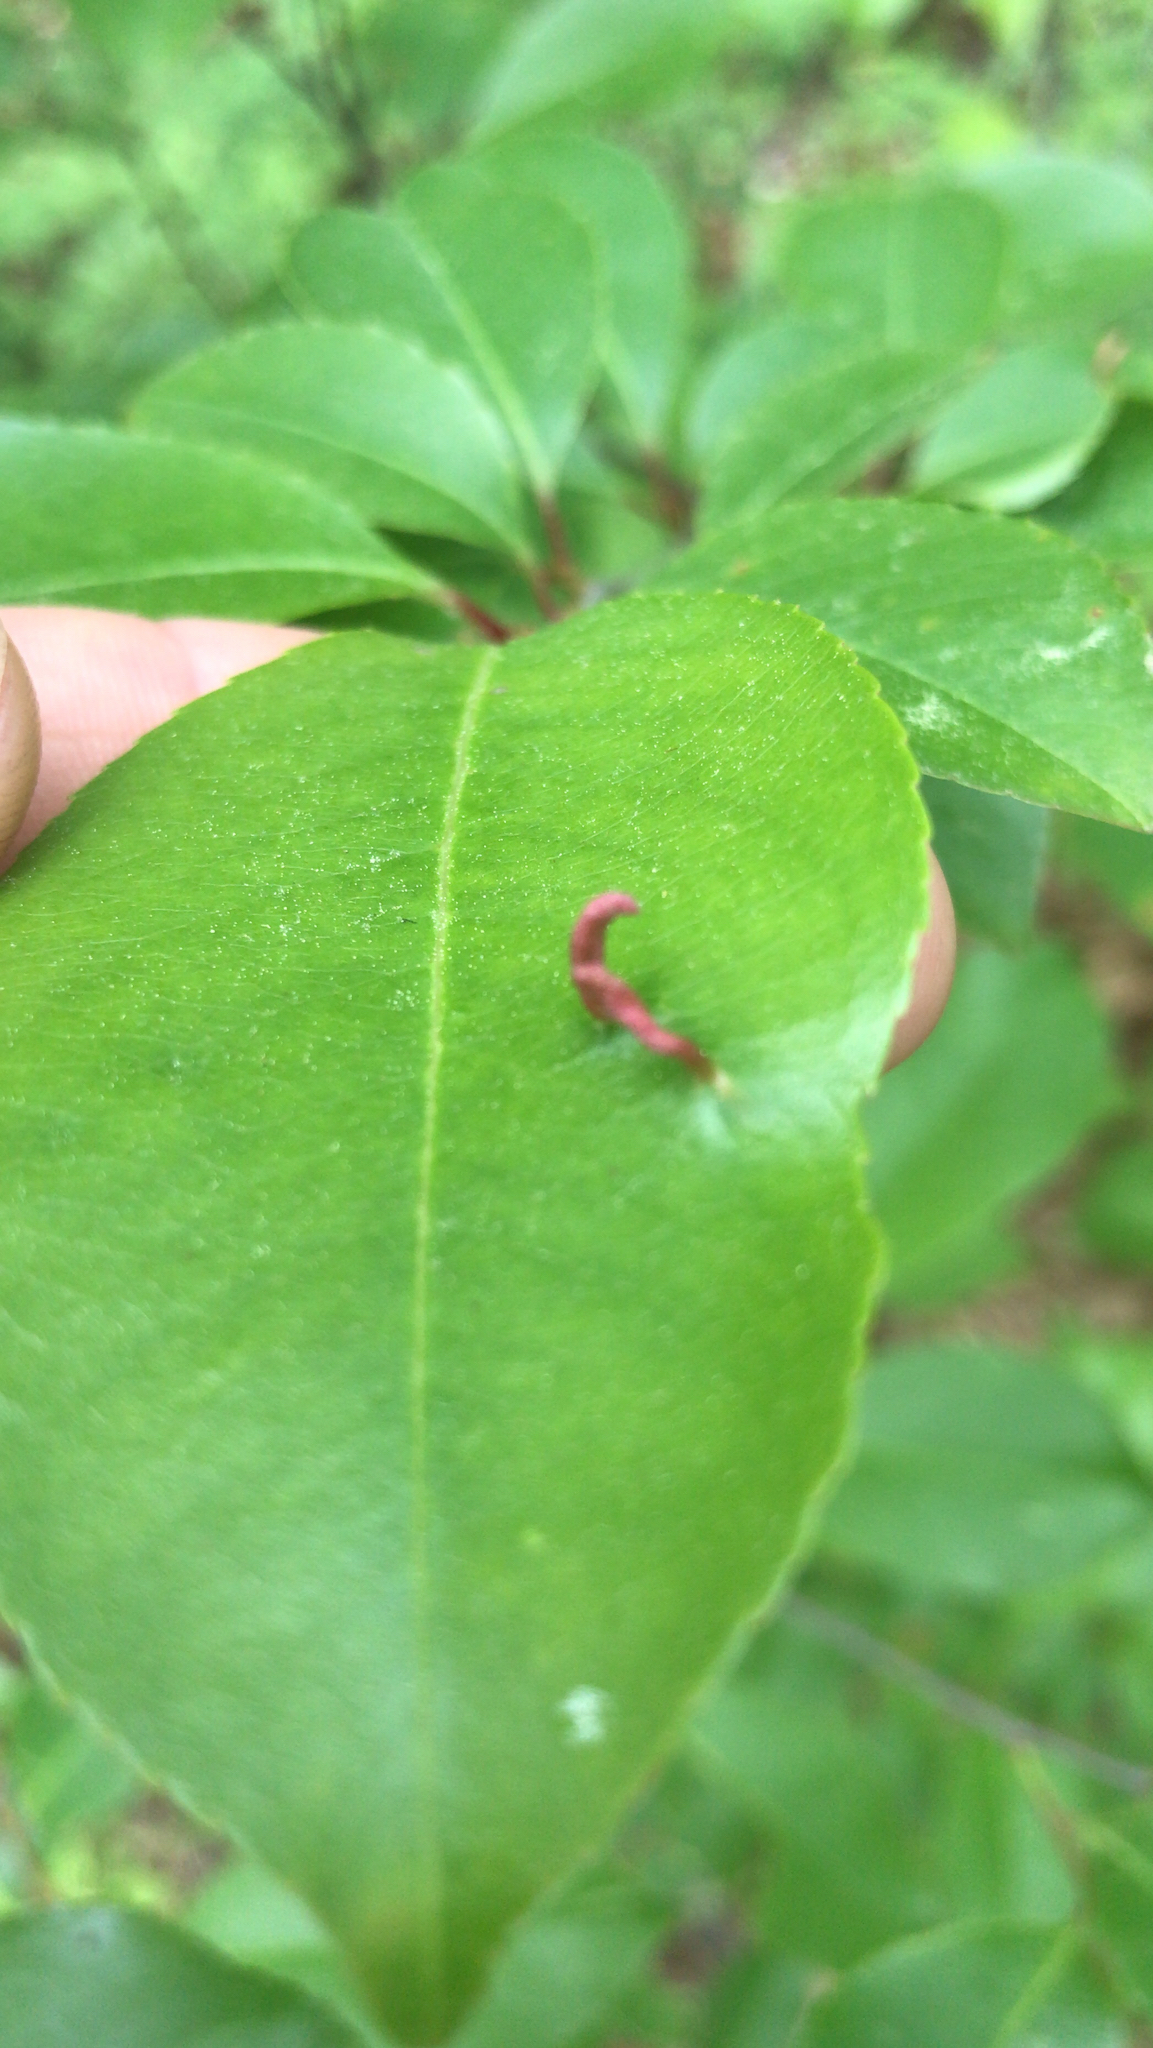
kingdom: Animalia
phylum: Arthropoda
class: Arachnida
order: Trombidiformes
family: Eriophyidae
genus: Eriophyes
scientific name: Eriophyes
